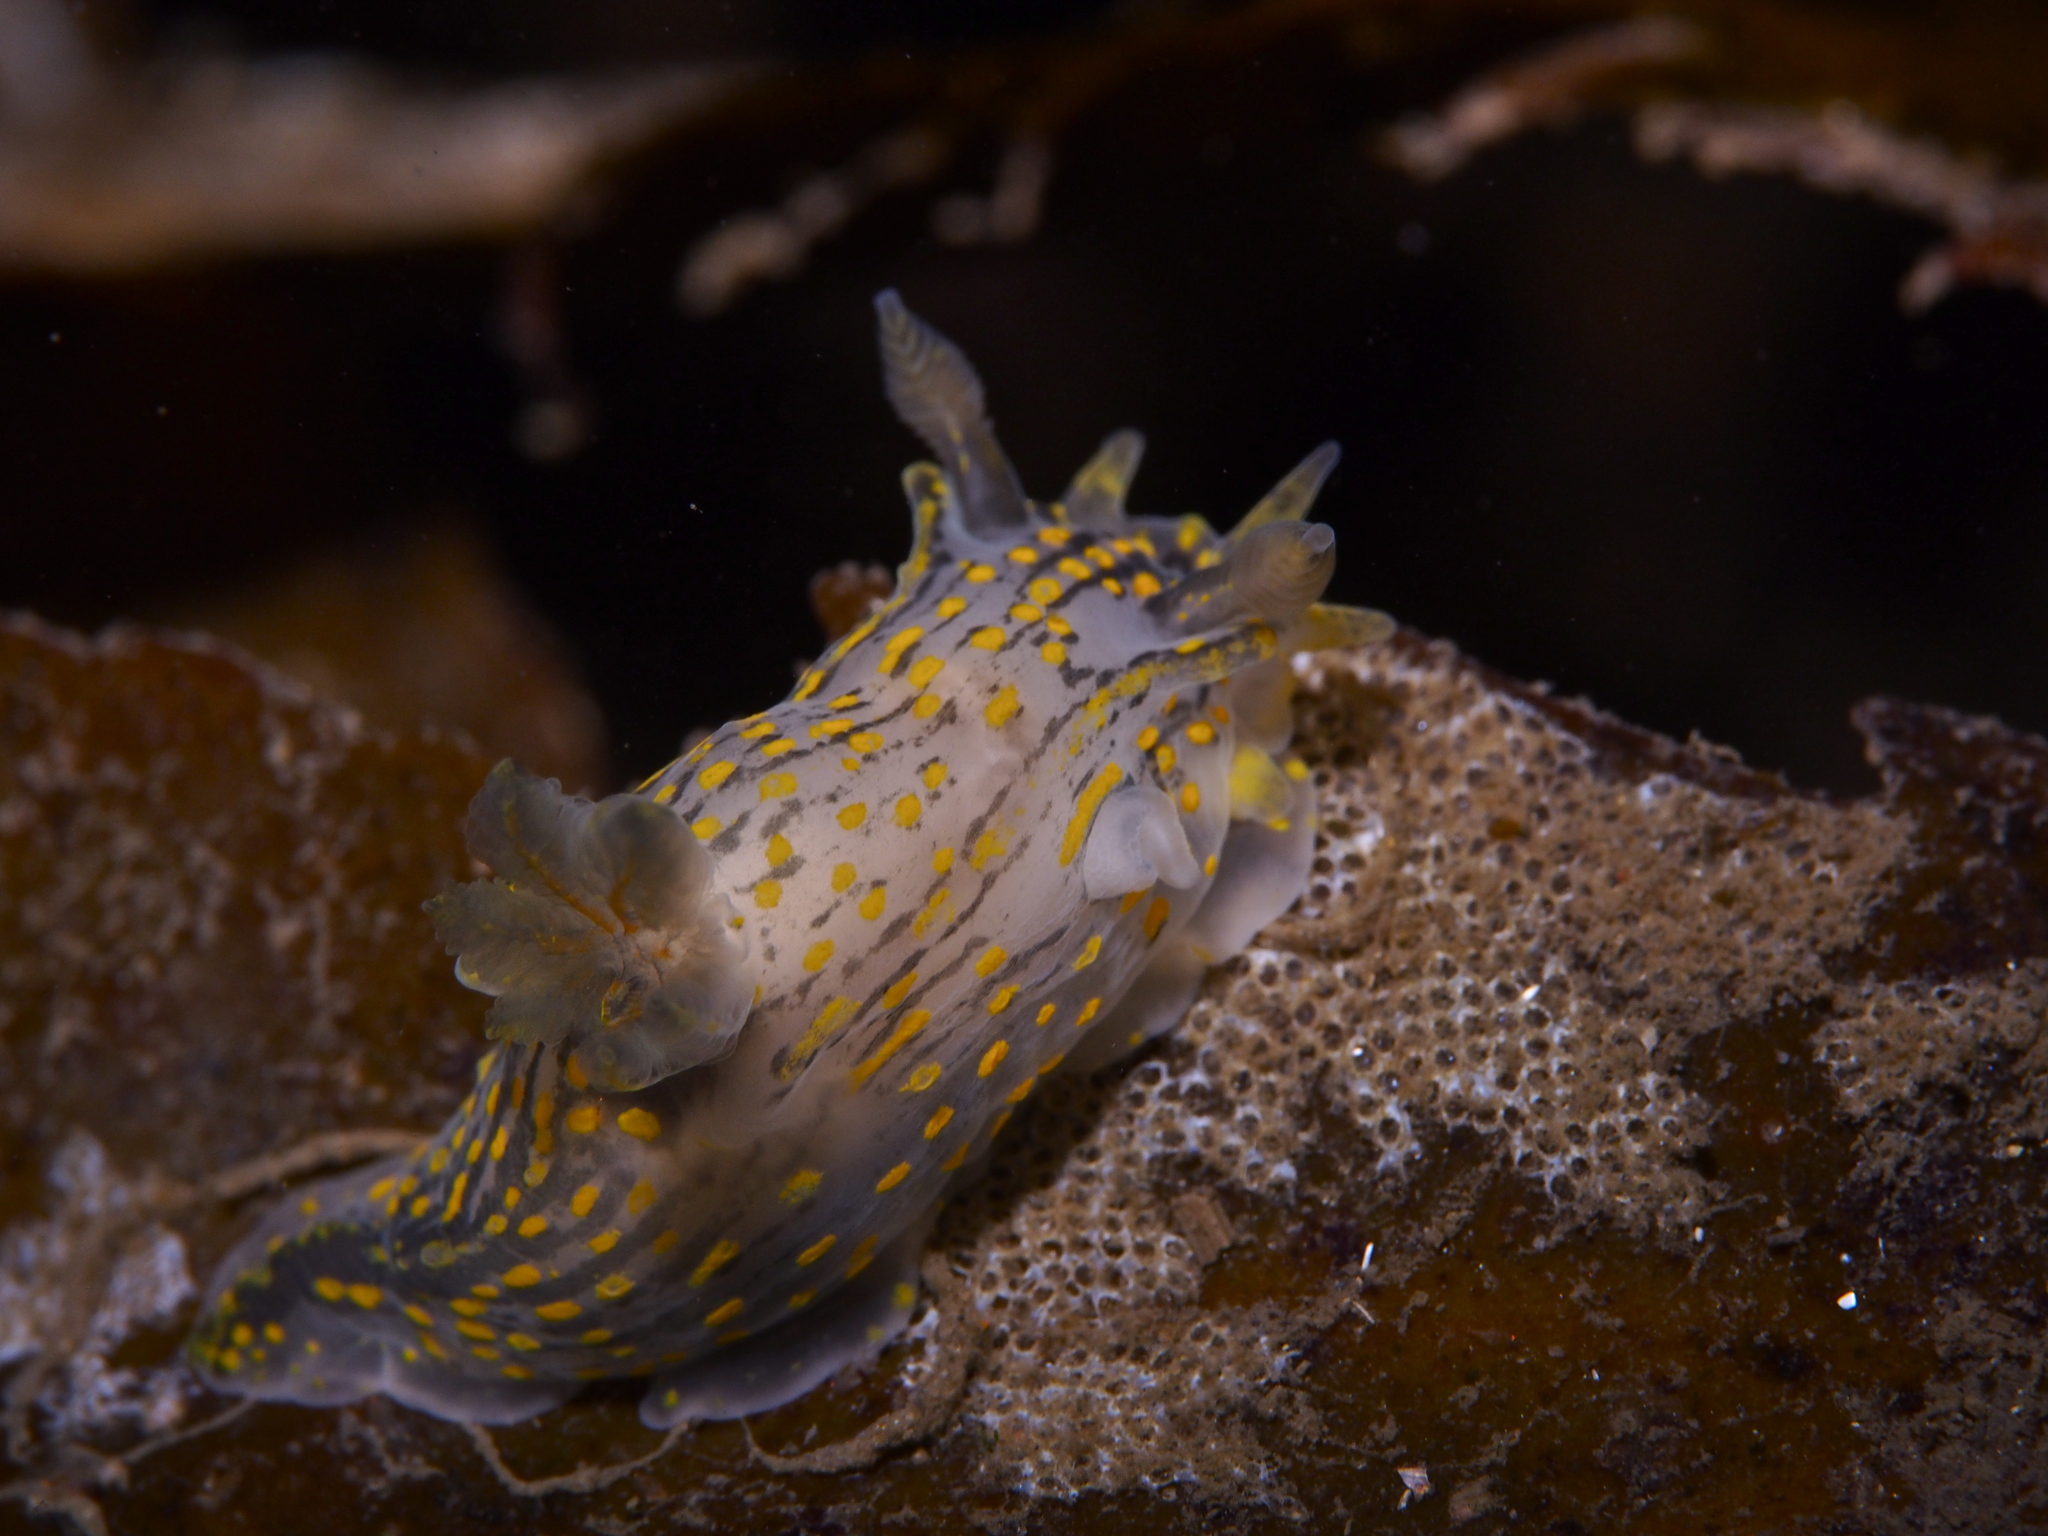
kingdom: Animalia
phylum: Mollusca
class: Gastropoda
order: Nudibranchia
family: Polyceridae
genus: Polycera
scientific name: Polycera quadrilineata
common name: Four-striped polycera
